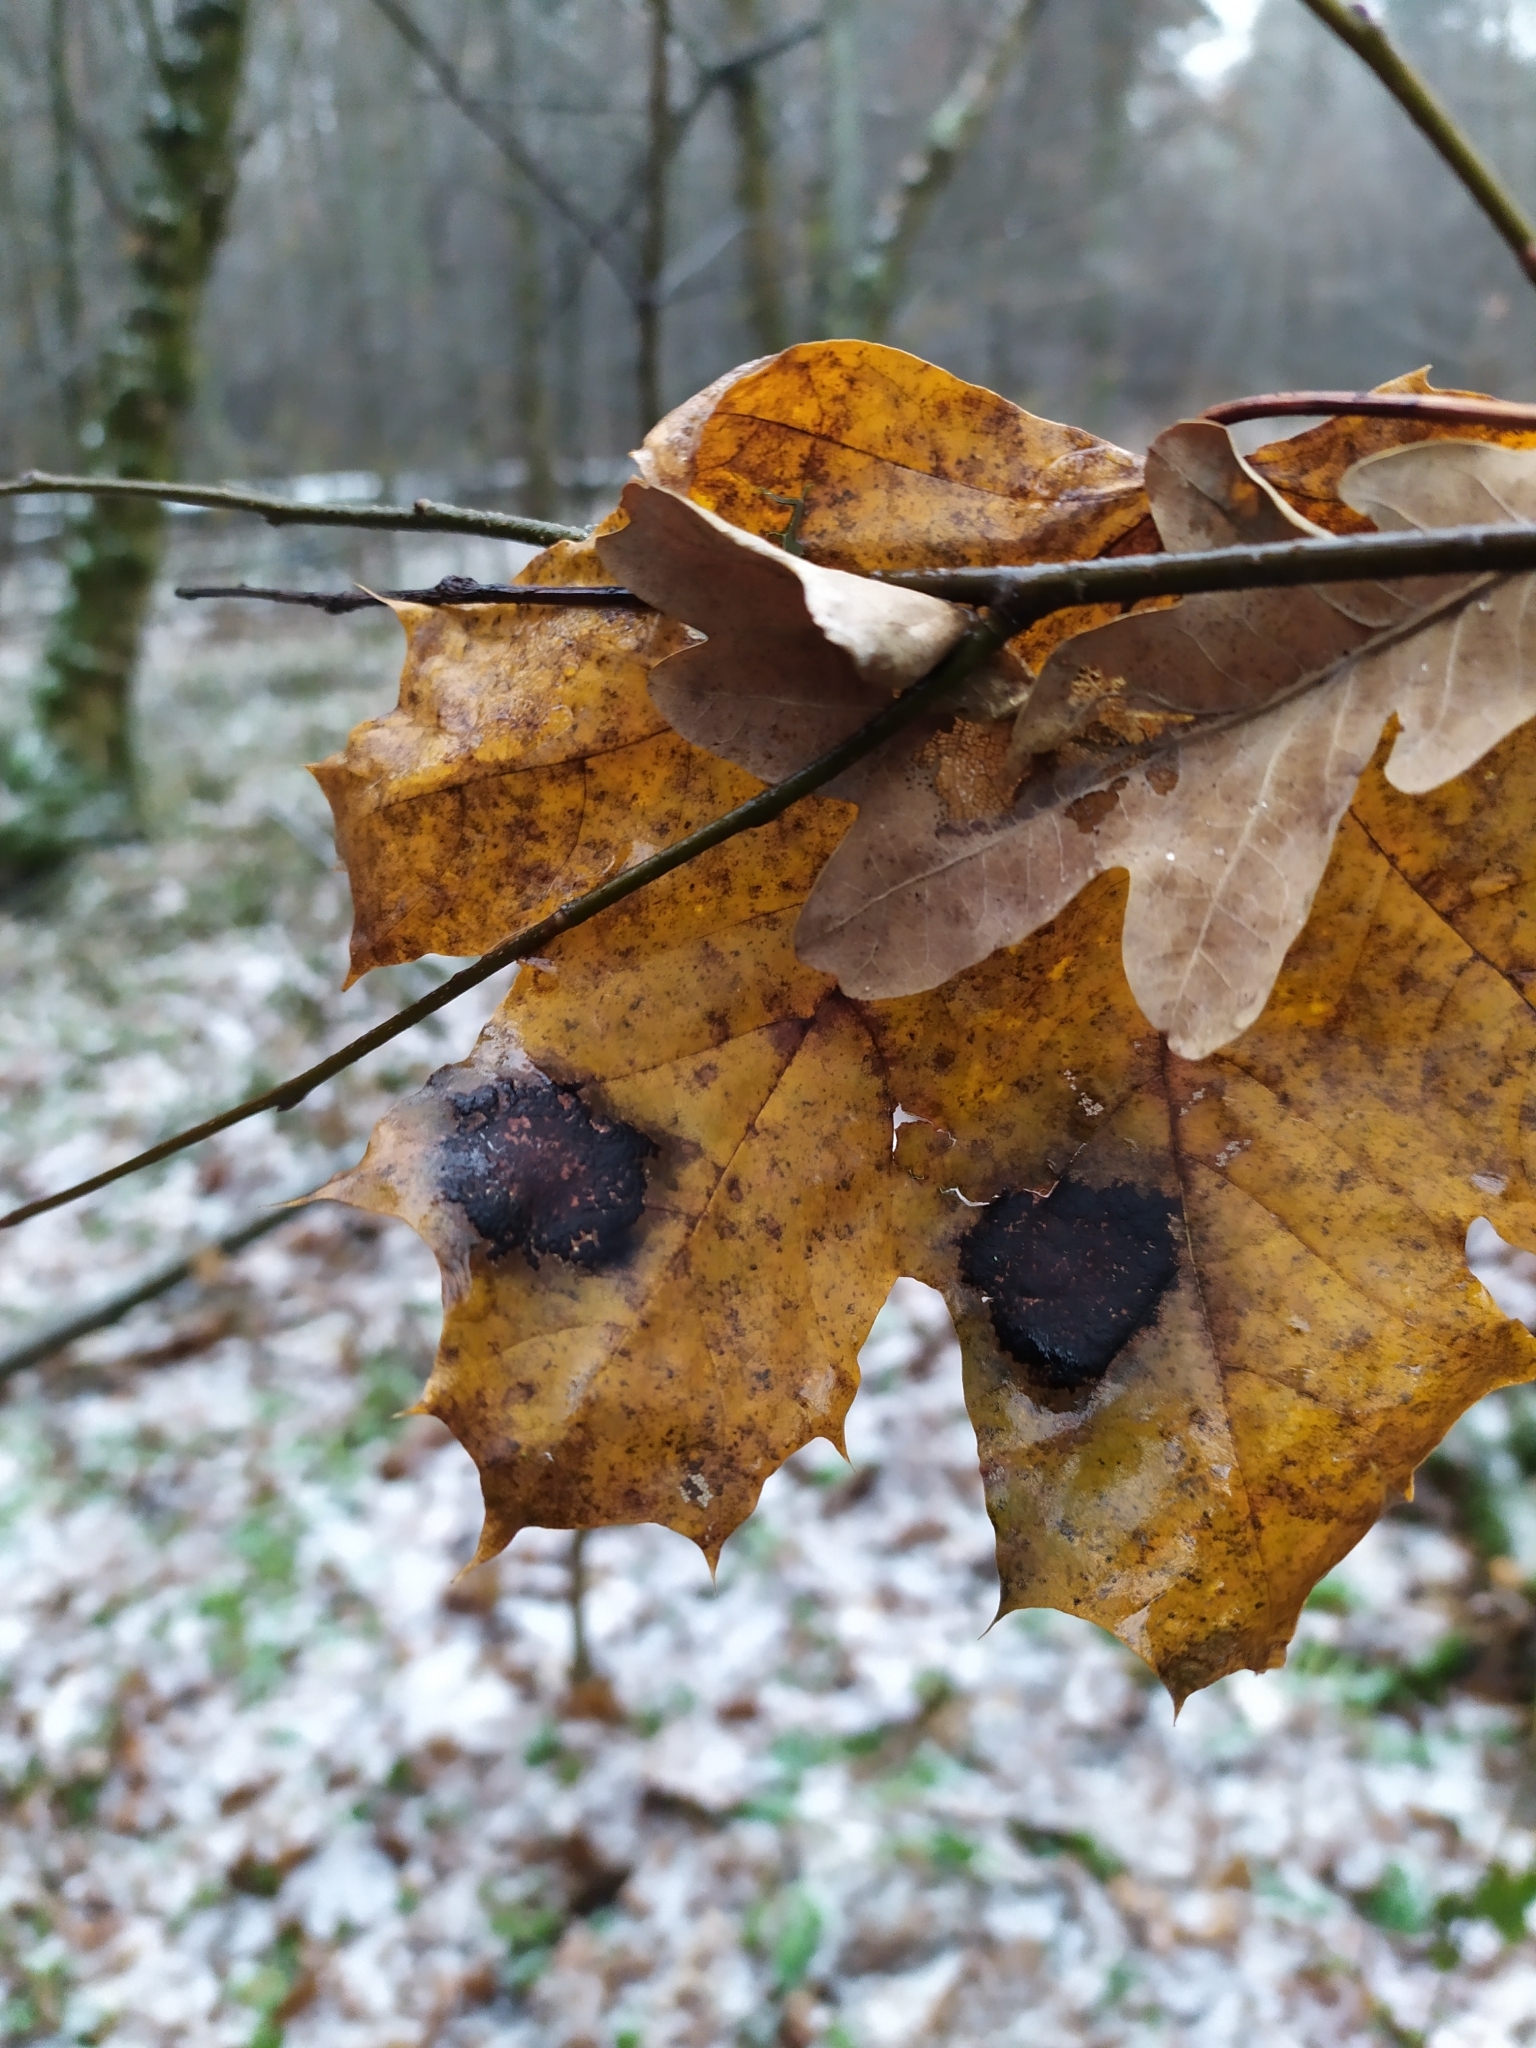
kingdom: Fungi
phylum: Ascomycota
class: Leotiomycetes
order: Rhytismatales
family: Rhytismataceae
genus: Rhytisma
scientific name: Rhytisma acerinum
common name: European tar spot
